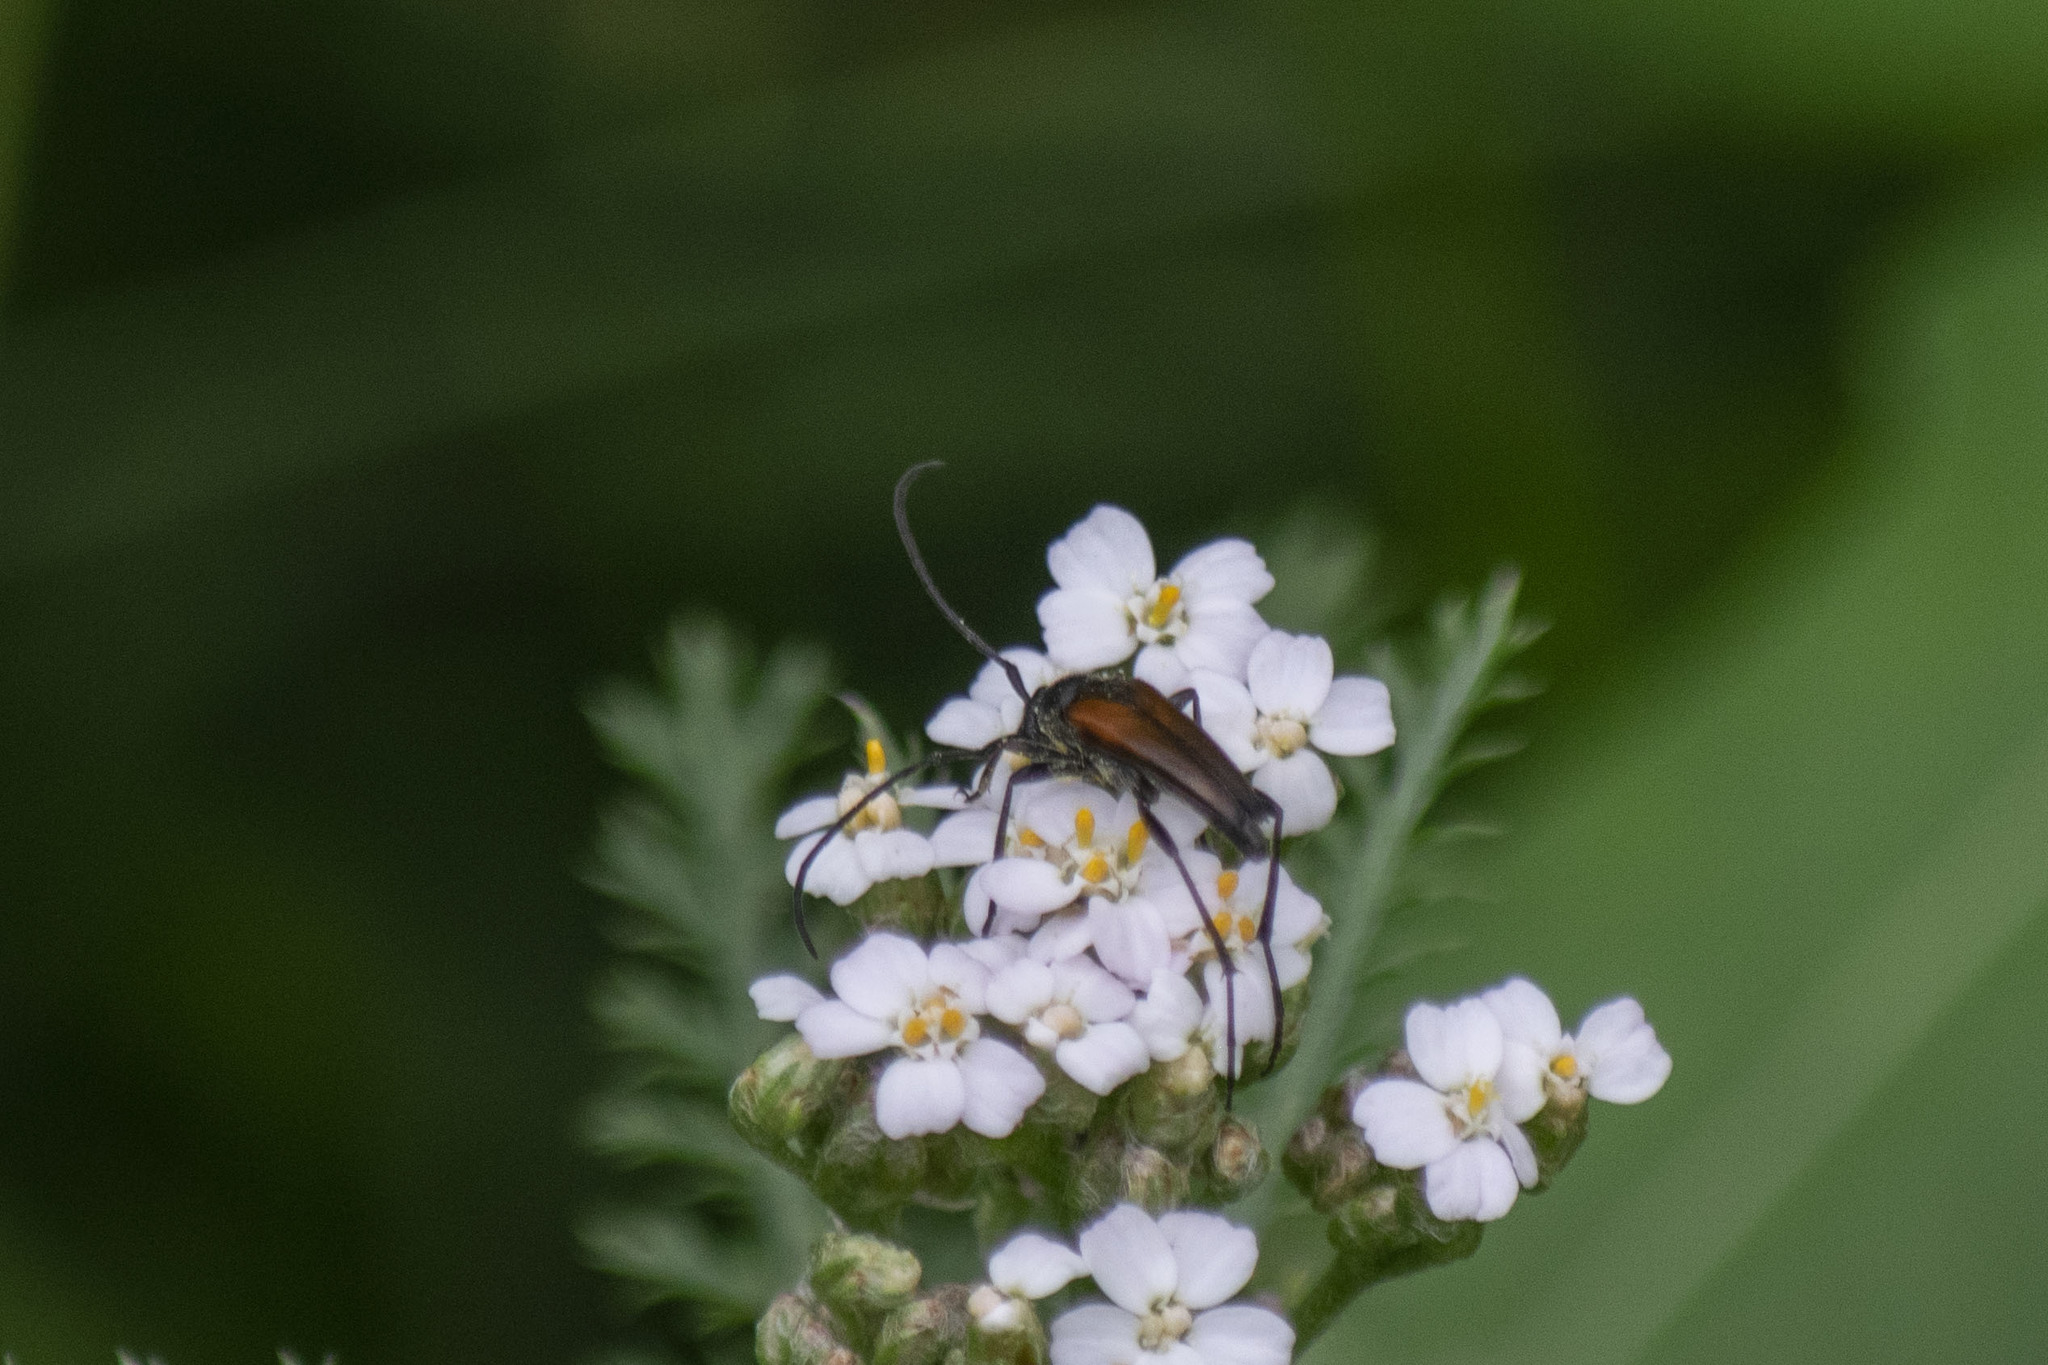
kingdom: Animalia
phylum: Arthropoda
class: Insecta
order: Coleoptera
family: Cerambycidae
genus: Stenurella
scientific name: Stenurella melanura
